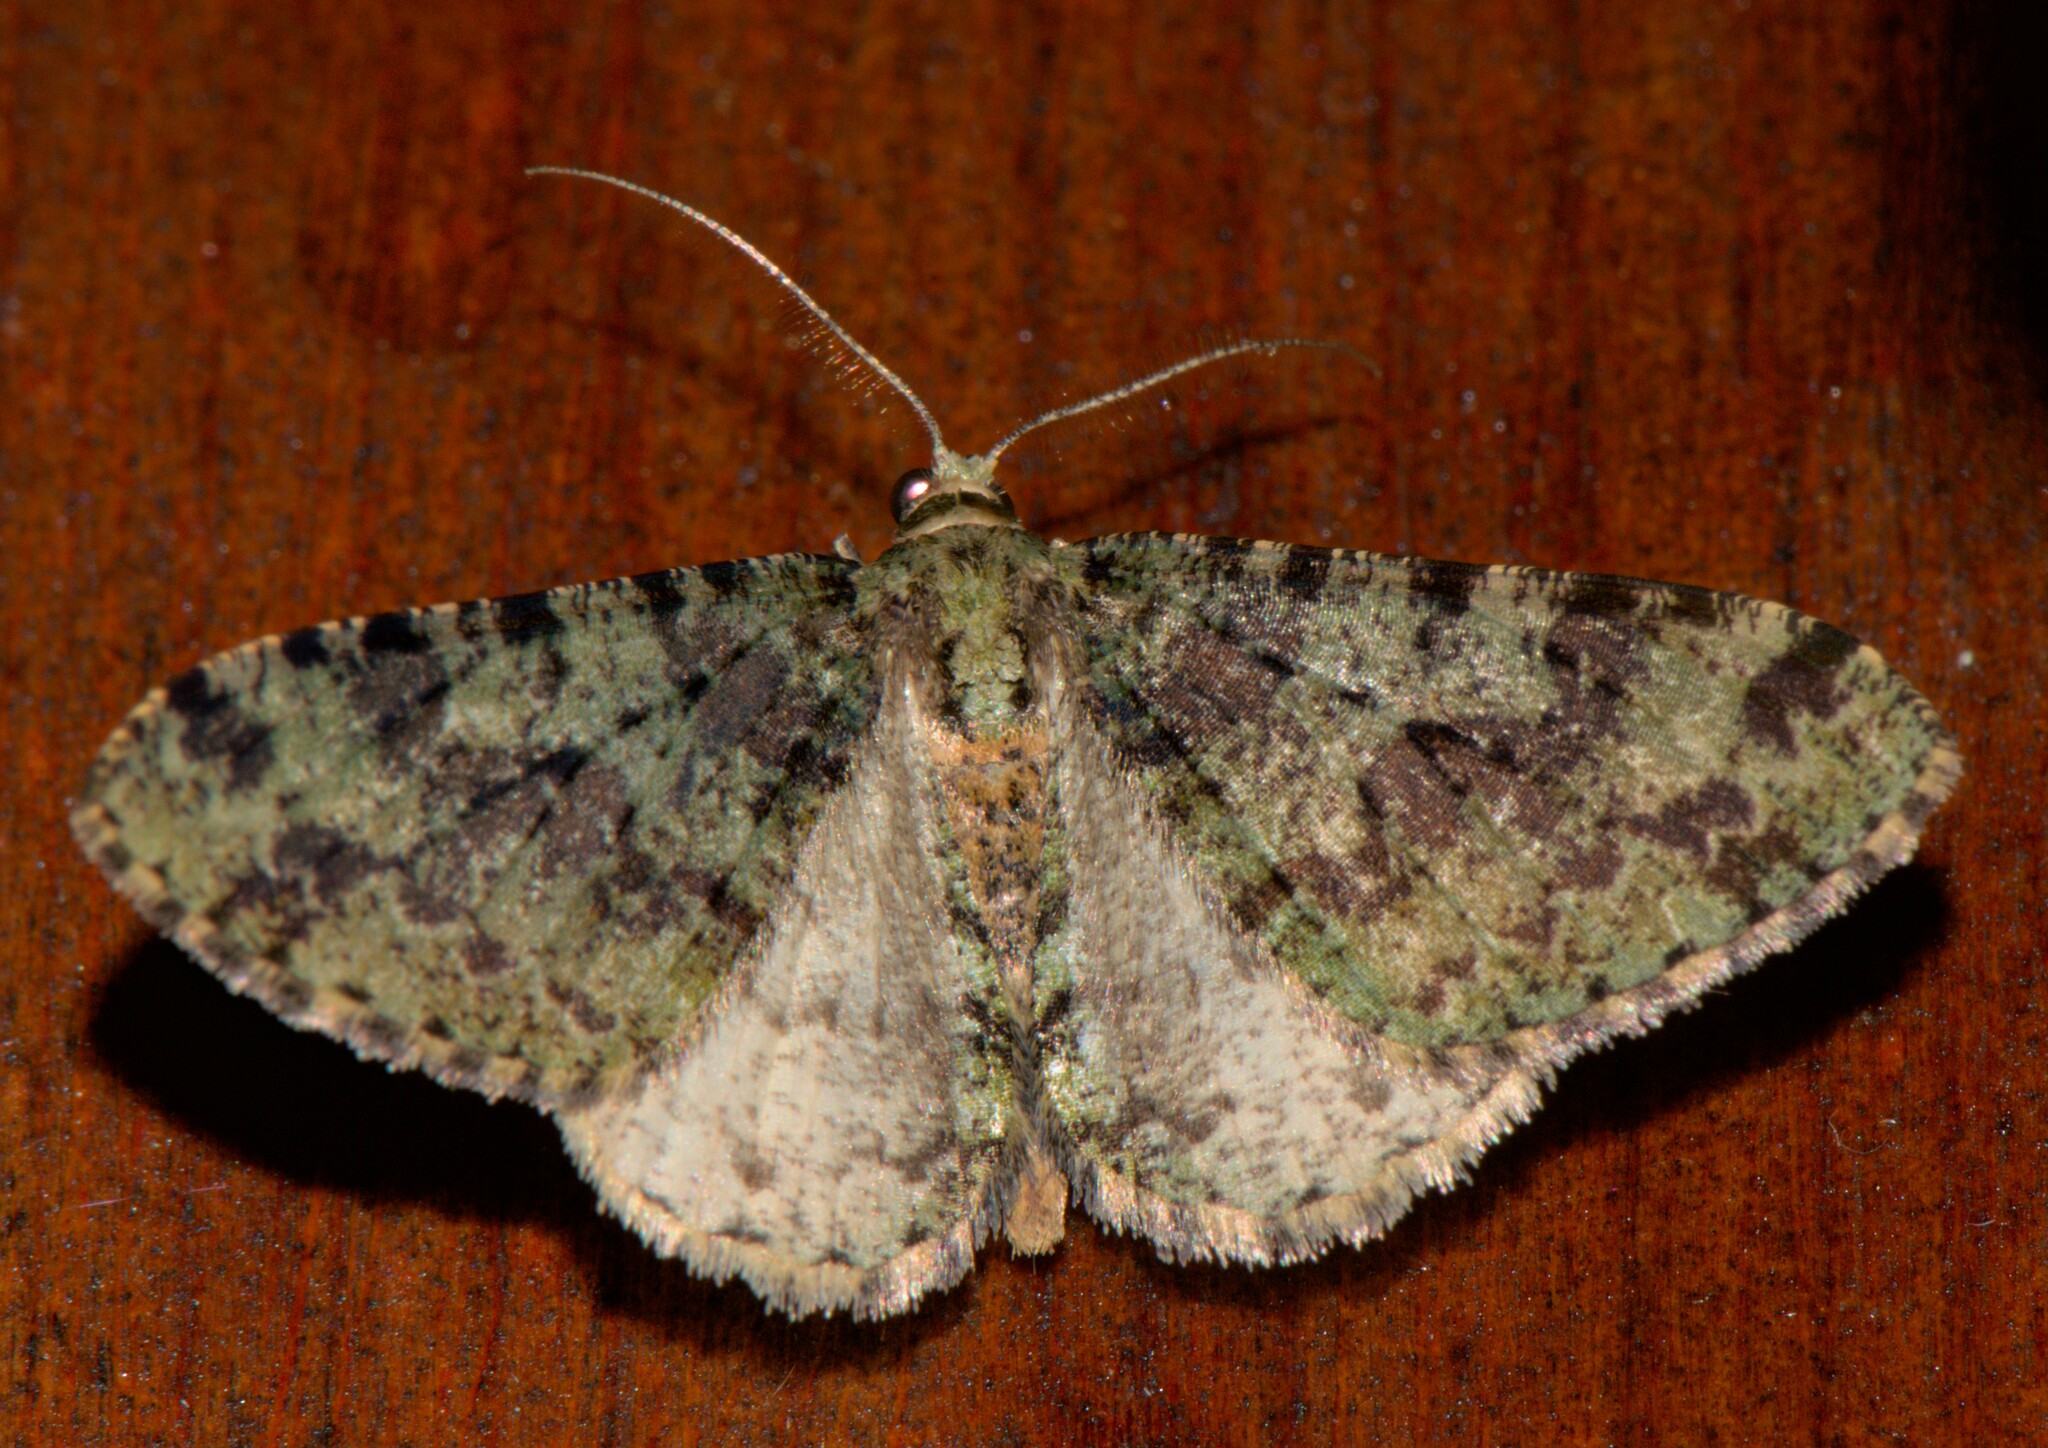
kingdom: Animalia
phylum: Arthropoda
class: Insecta
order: Lepidoptera
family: Geometridae
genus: Myrioblephara
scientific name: Myrioblephara duplexa
